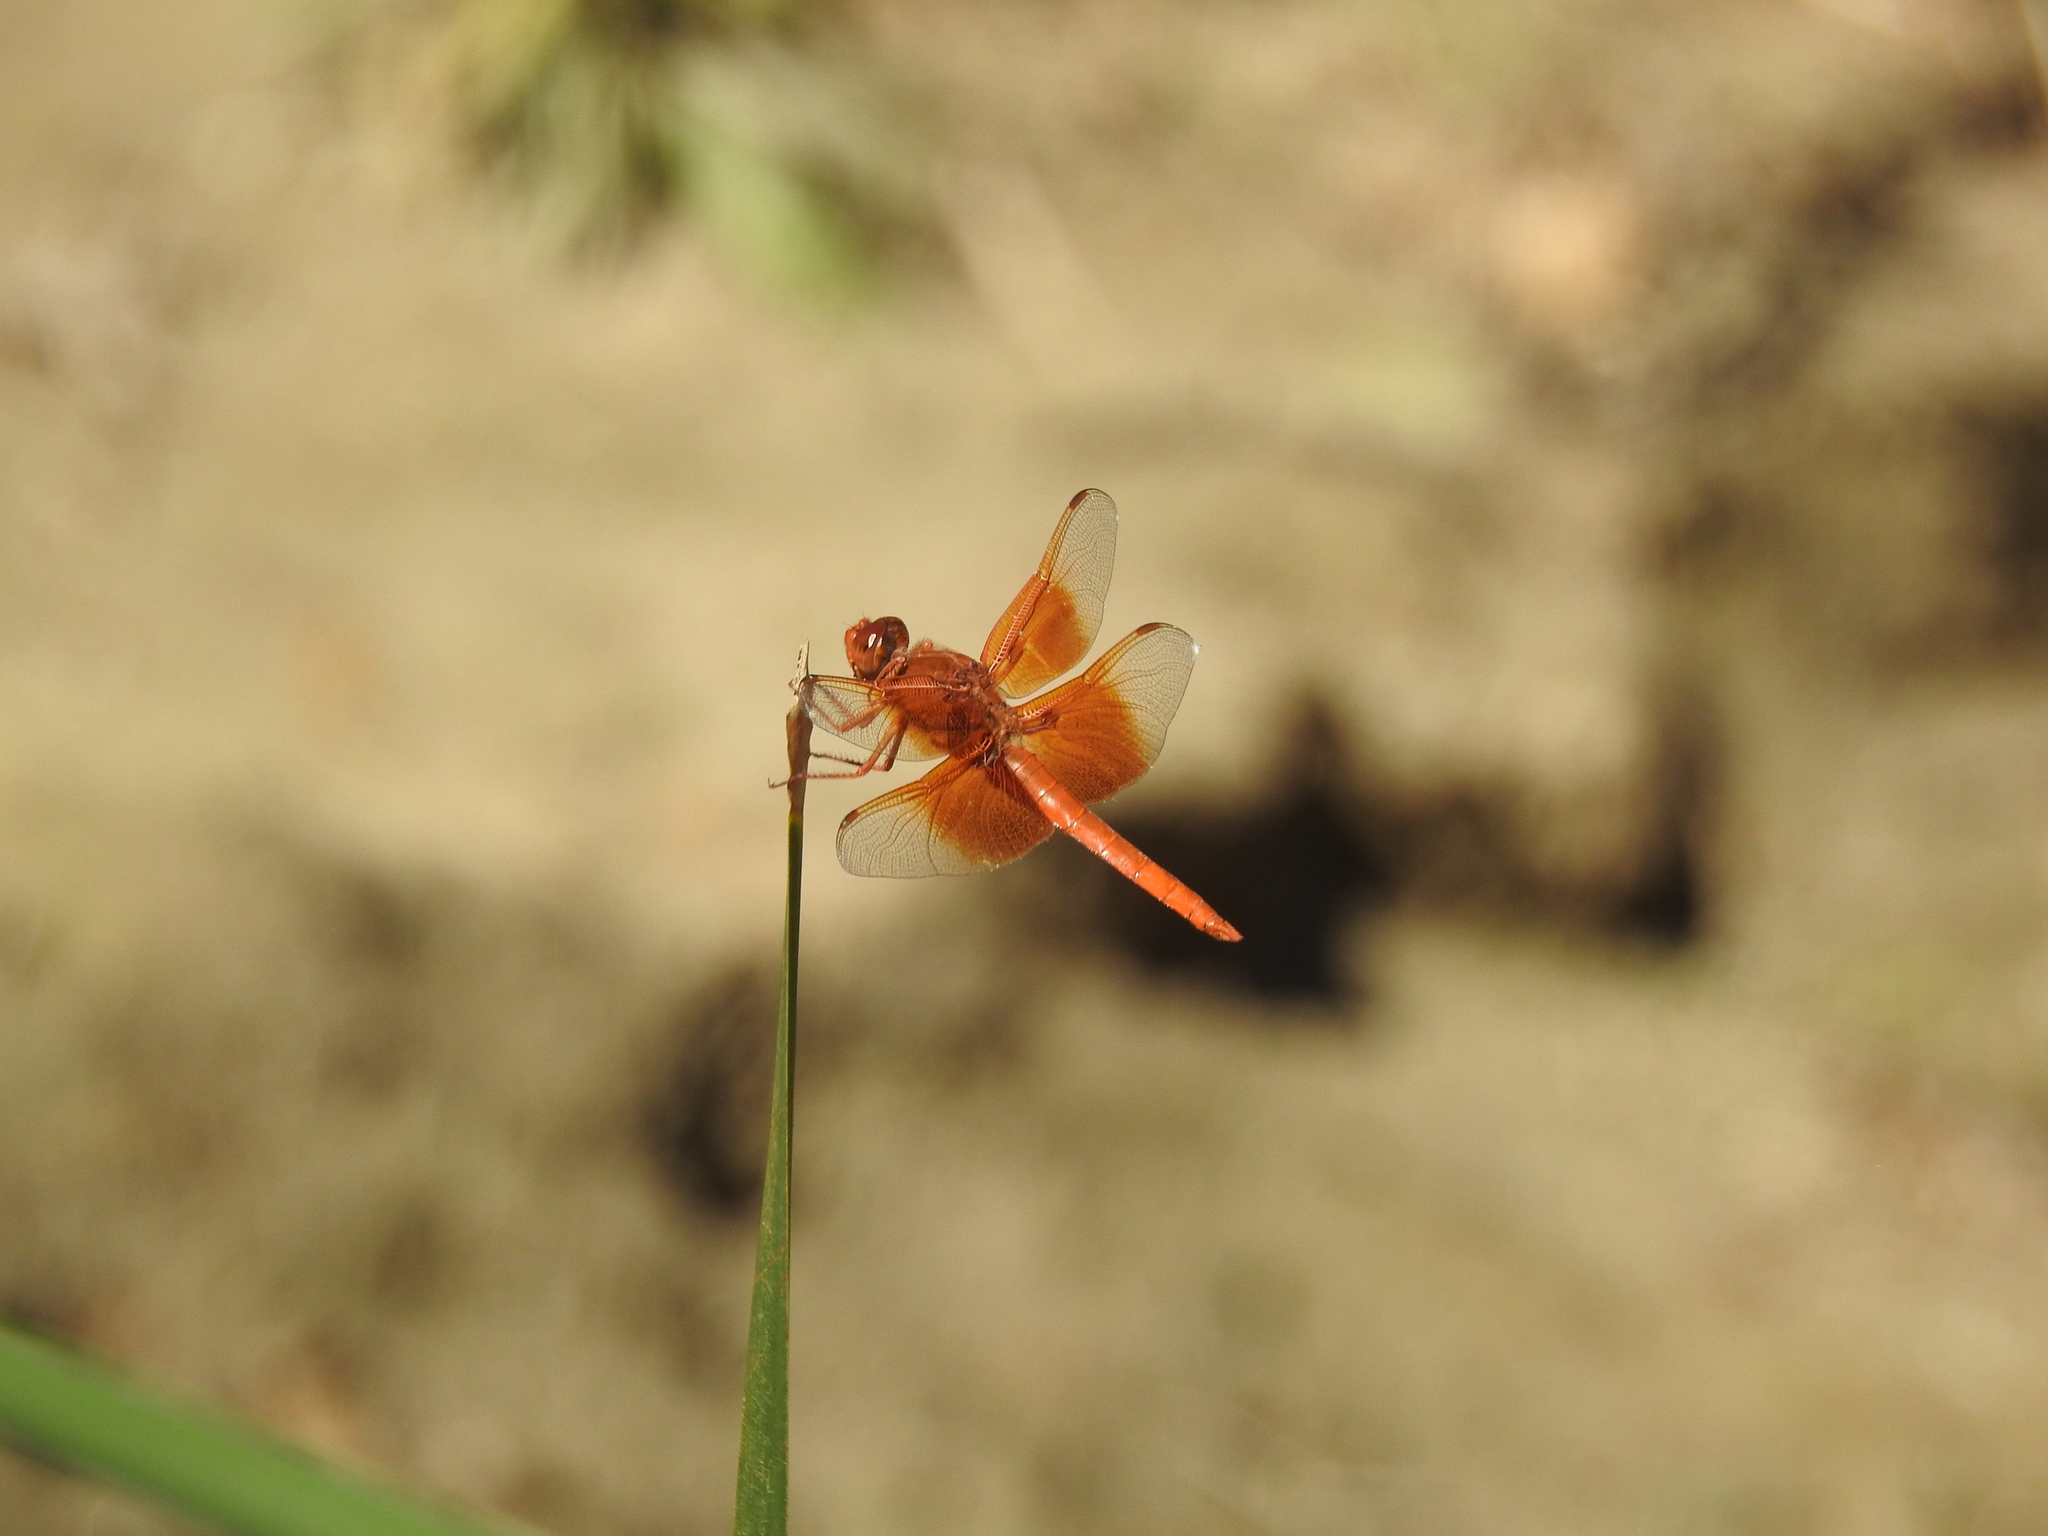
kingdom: Animalia
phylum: Arthropoda
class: Insecta
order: Odonata
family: Libellulidae
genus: Libellula
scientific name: Libellula saturata
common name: Flame skimmer
